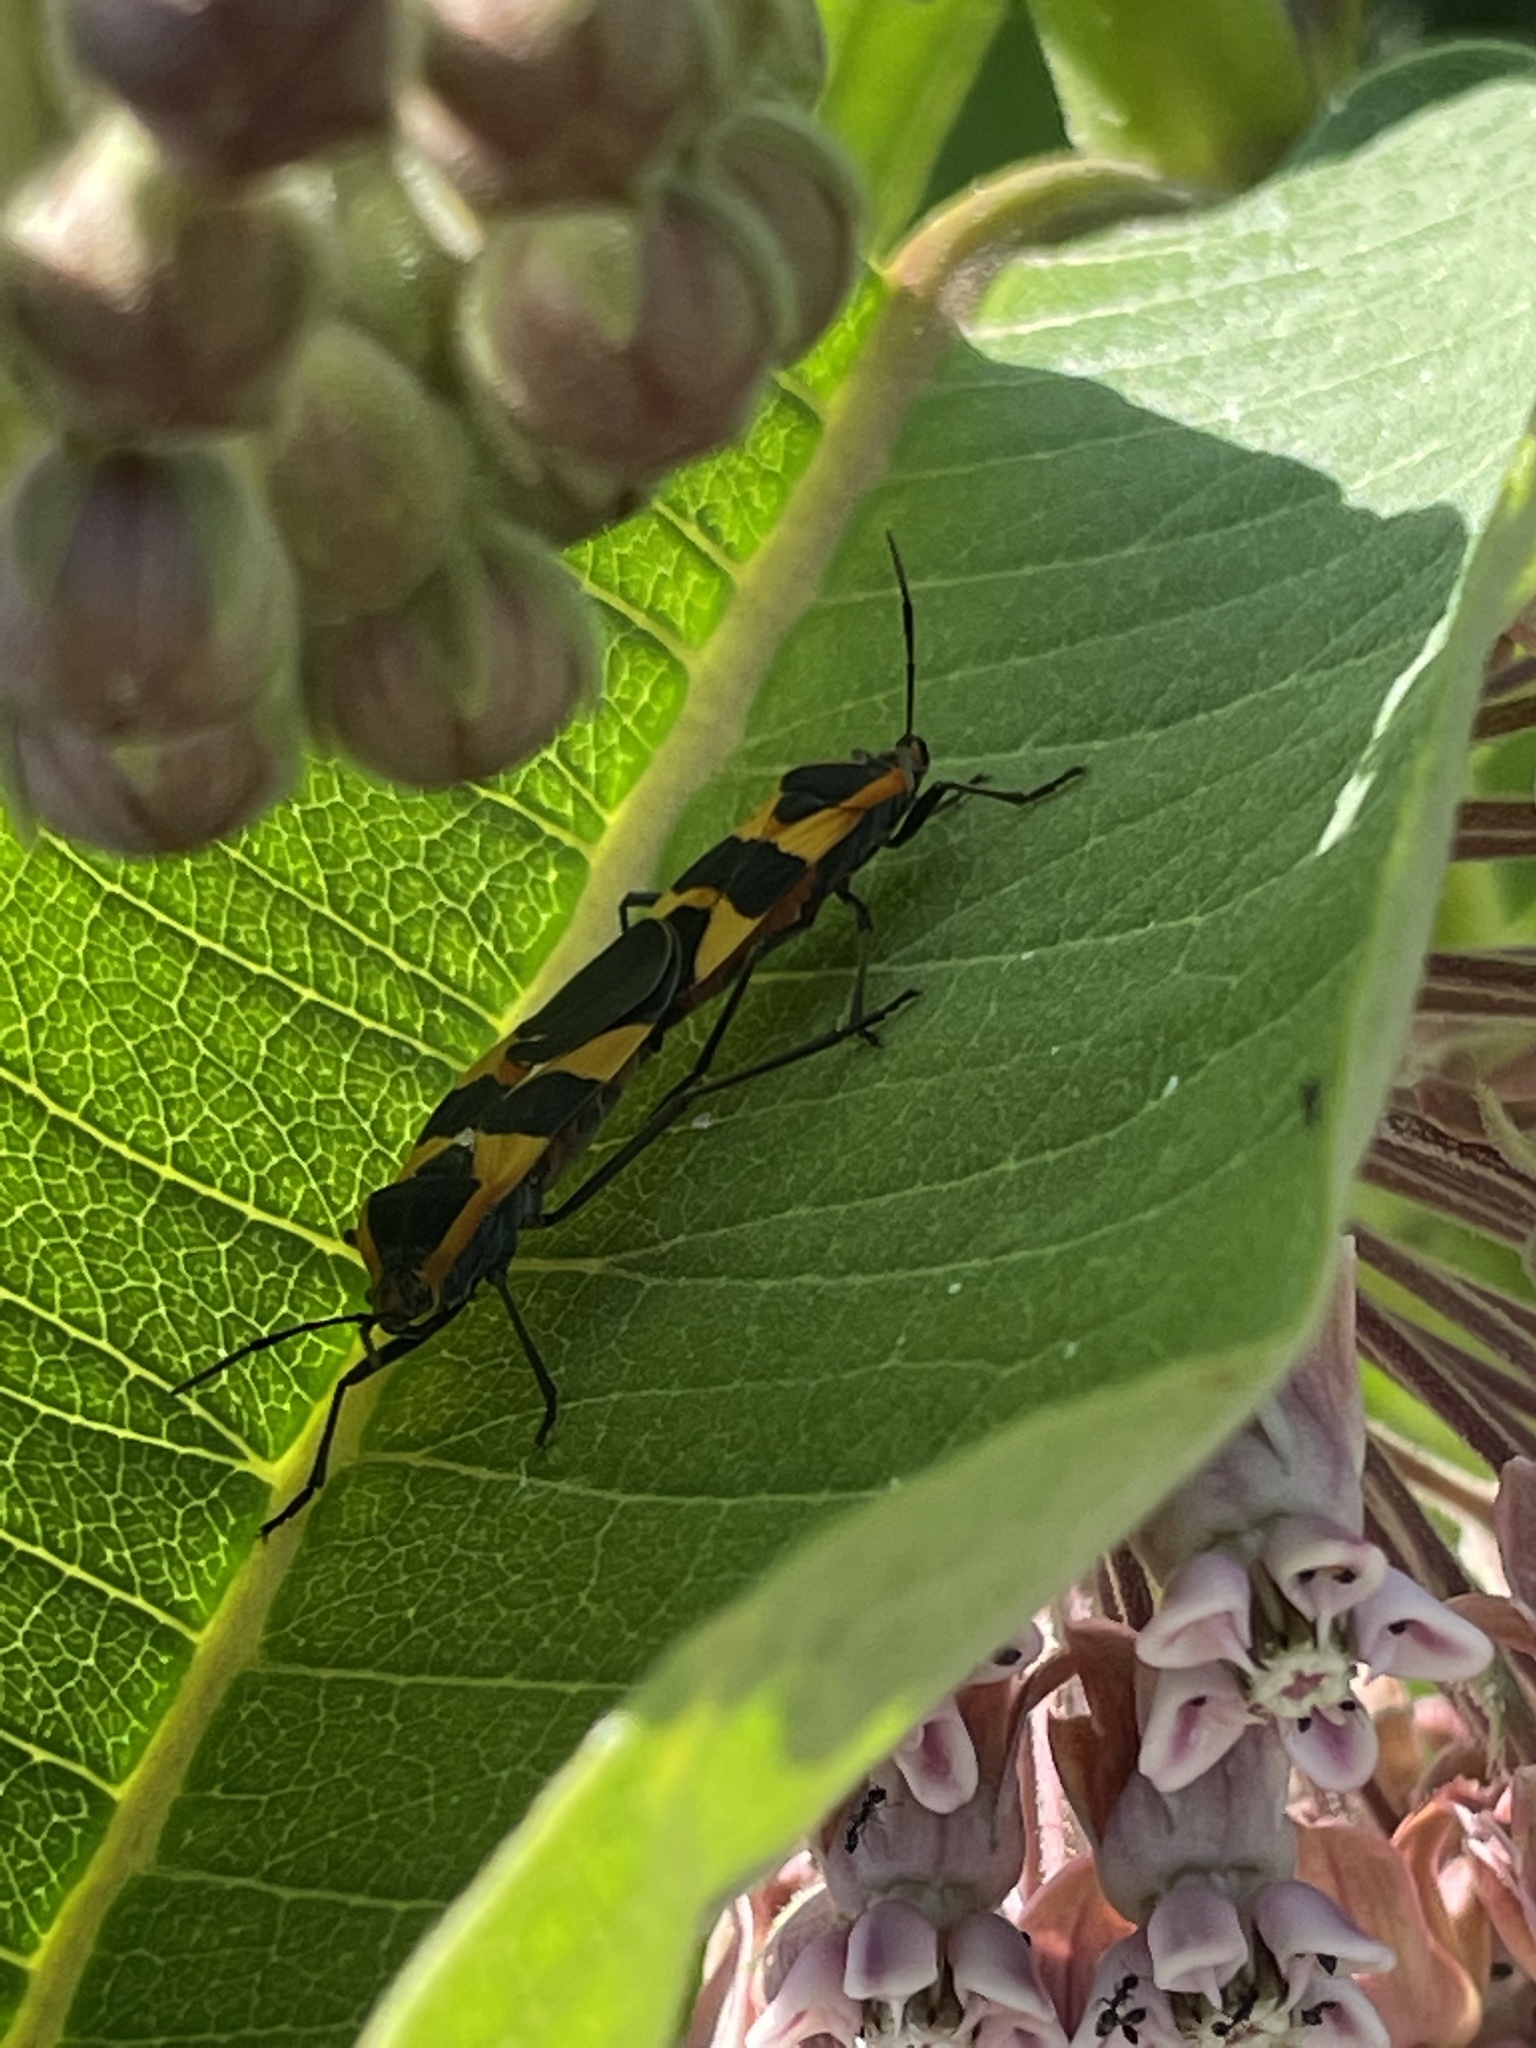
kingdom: Animalia
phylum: Arthropoda
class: Insecta
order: Hemiptera
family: Lygaeidae
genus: Oncopeltus
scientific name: Oncopeltus fasciatus
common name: Large milkweed bug
